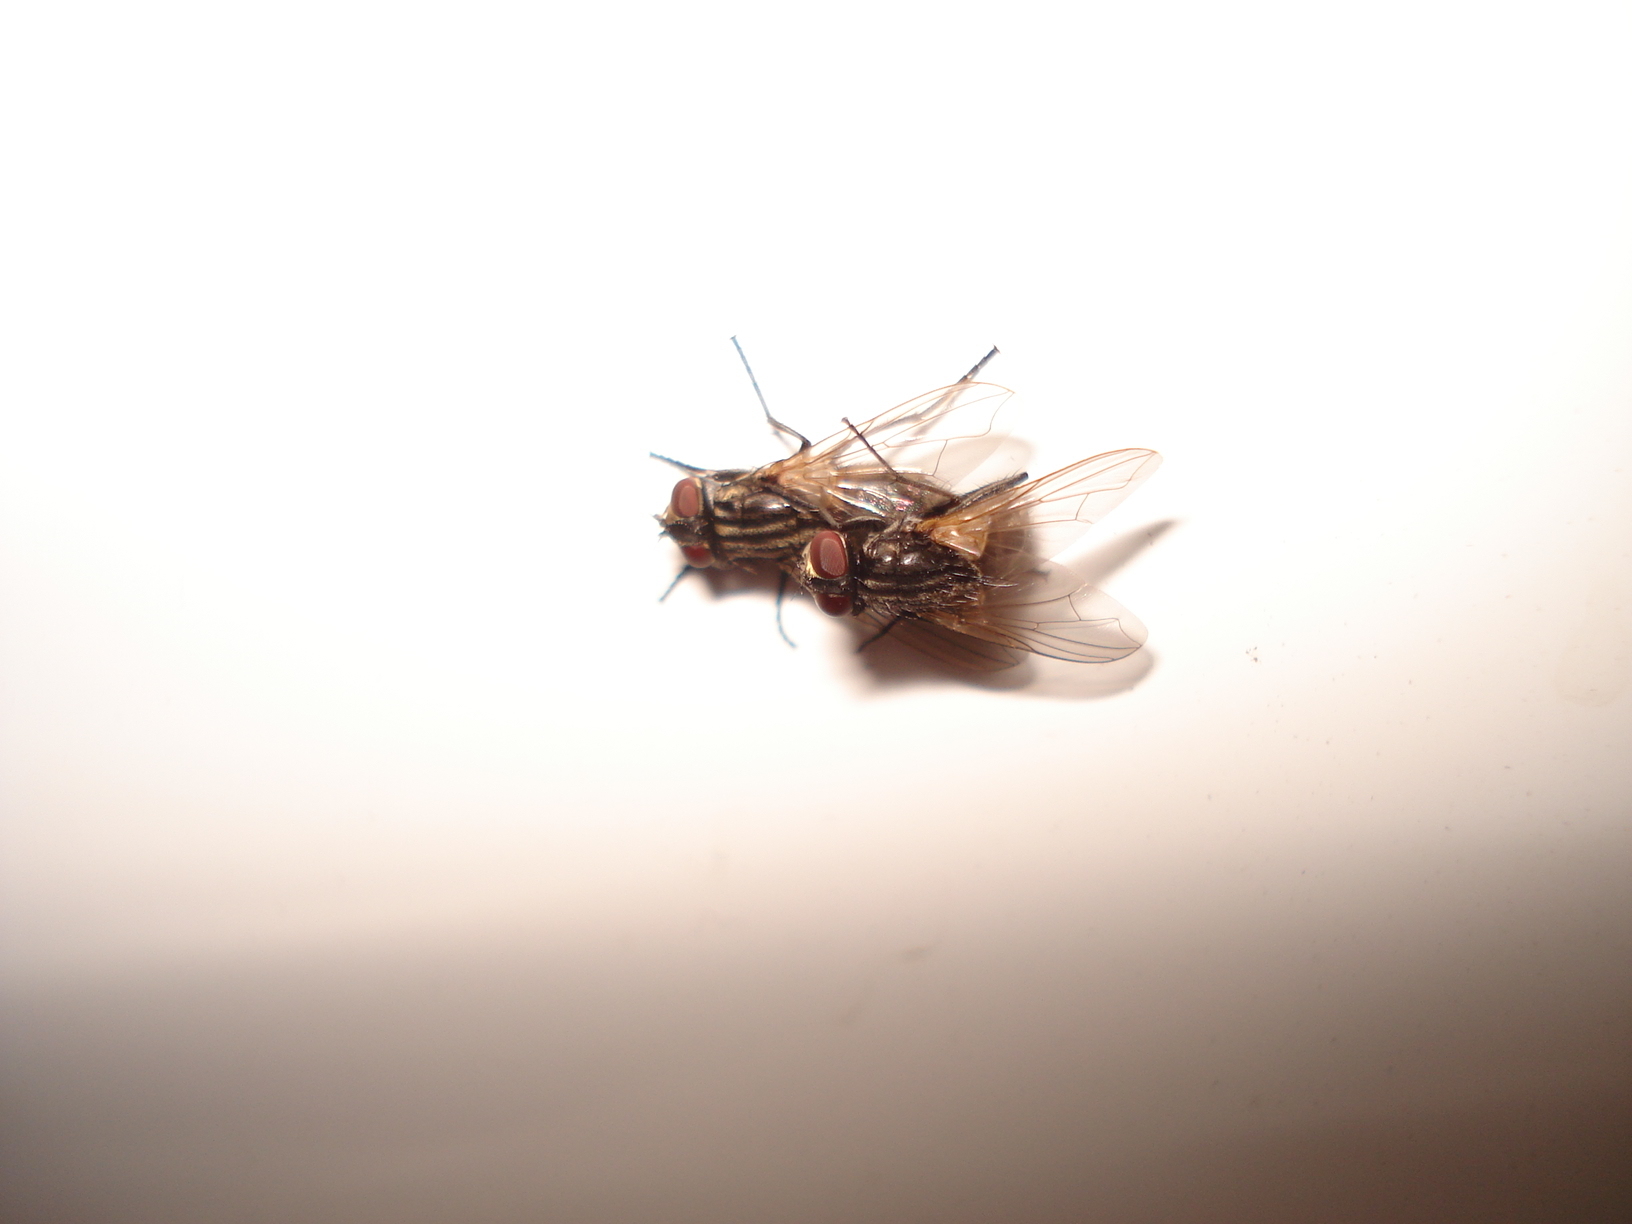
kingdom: Animalia
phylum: Arthropoda
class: Insecta
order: Diptera
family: Muscidae
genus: Musca
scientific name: Musca domestica
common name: House fly
